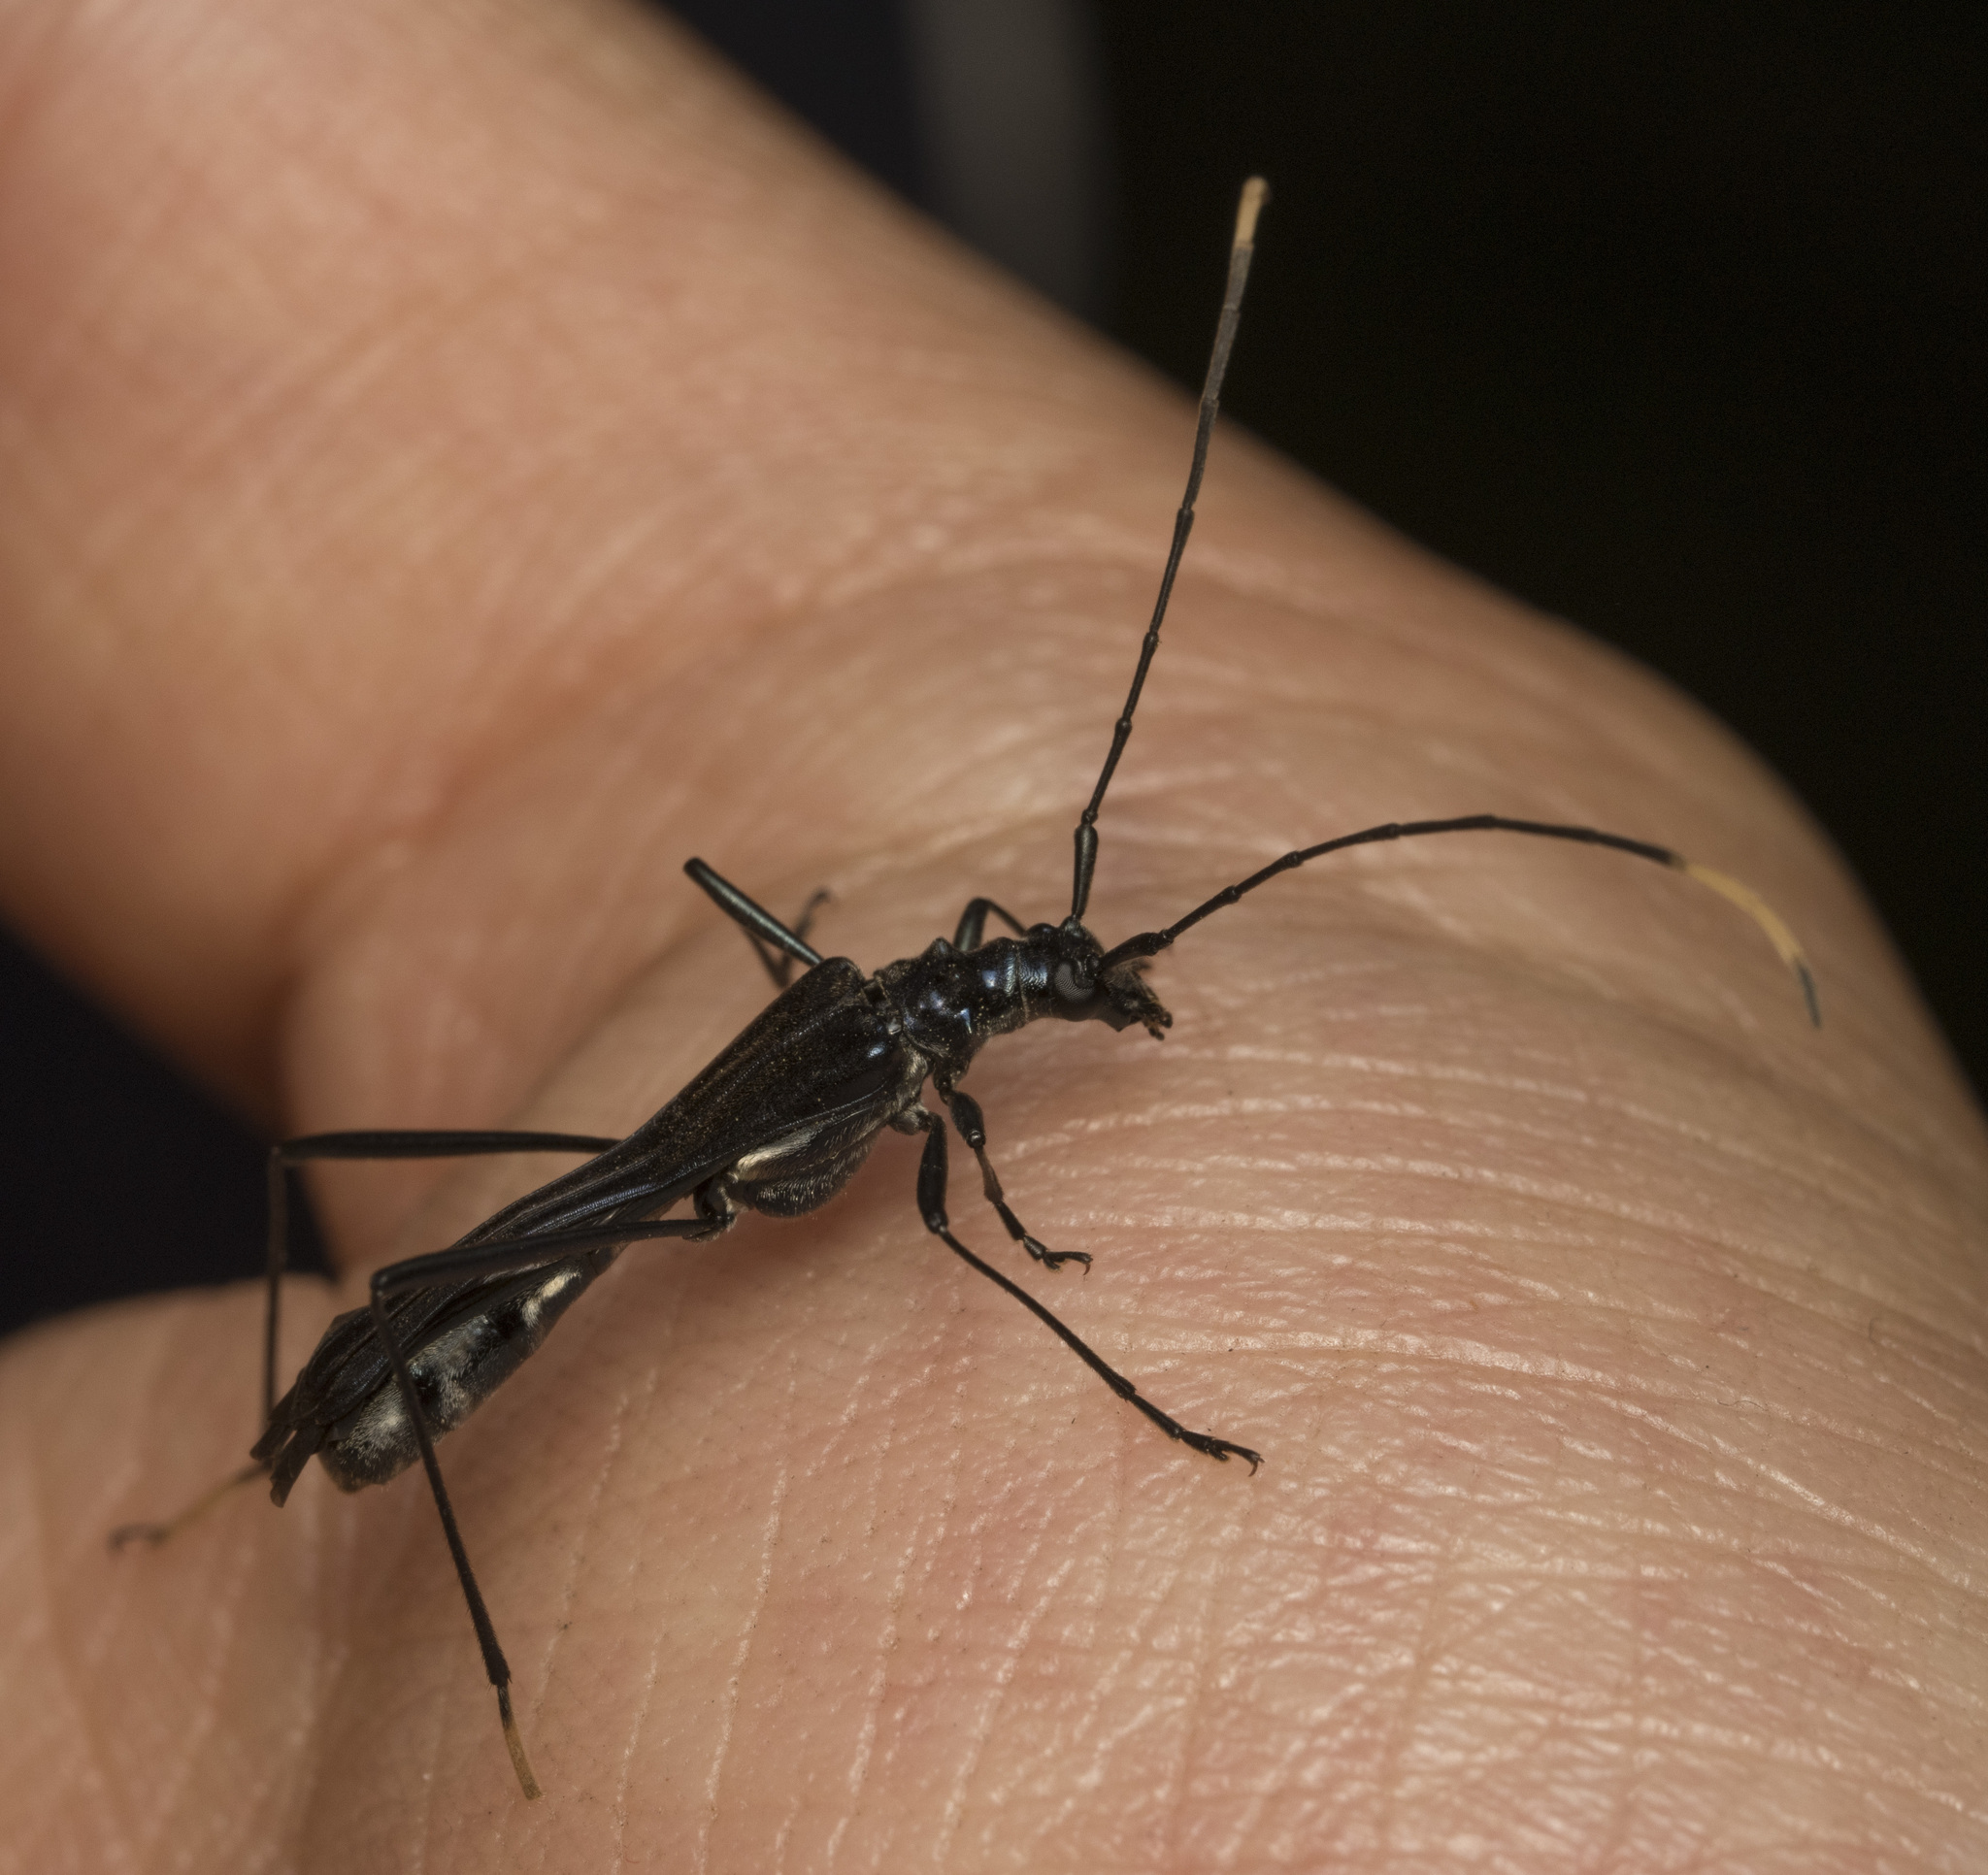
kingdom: Animalia
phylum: Arthropoda
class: Insecta
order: Coleoptera
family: Cerambycidae
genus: Stenorhopalus
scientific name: Stenorhopalus gracilipes
